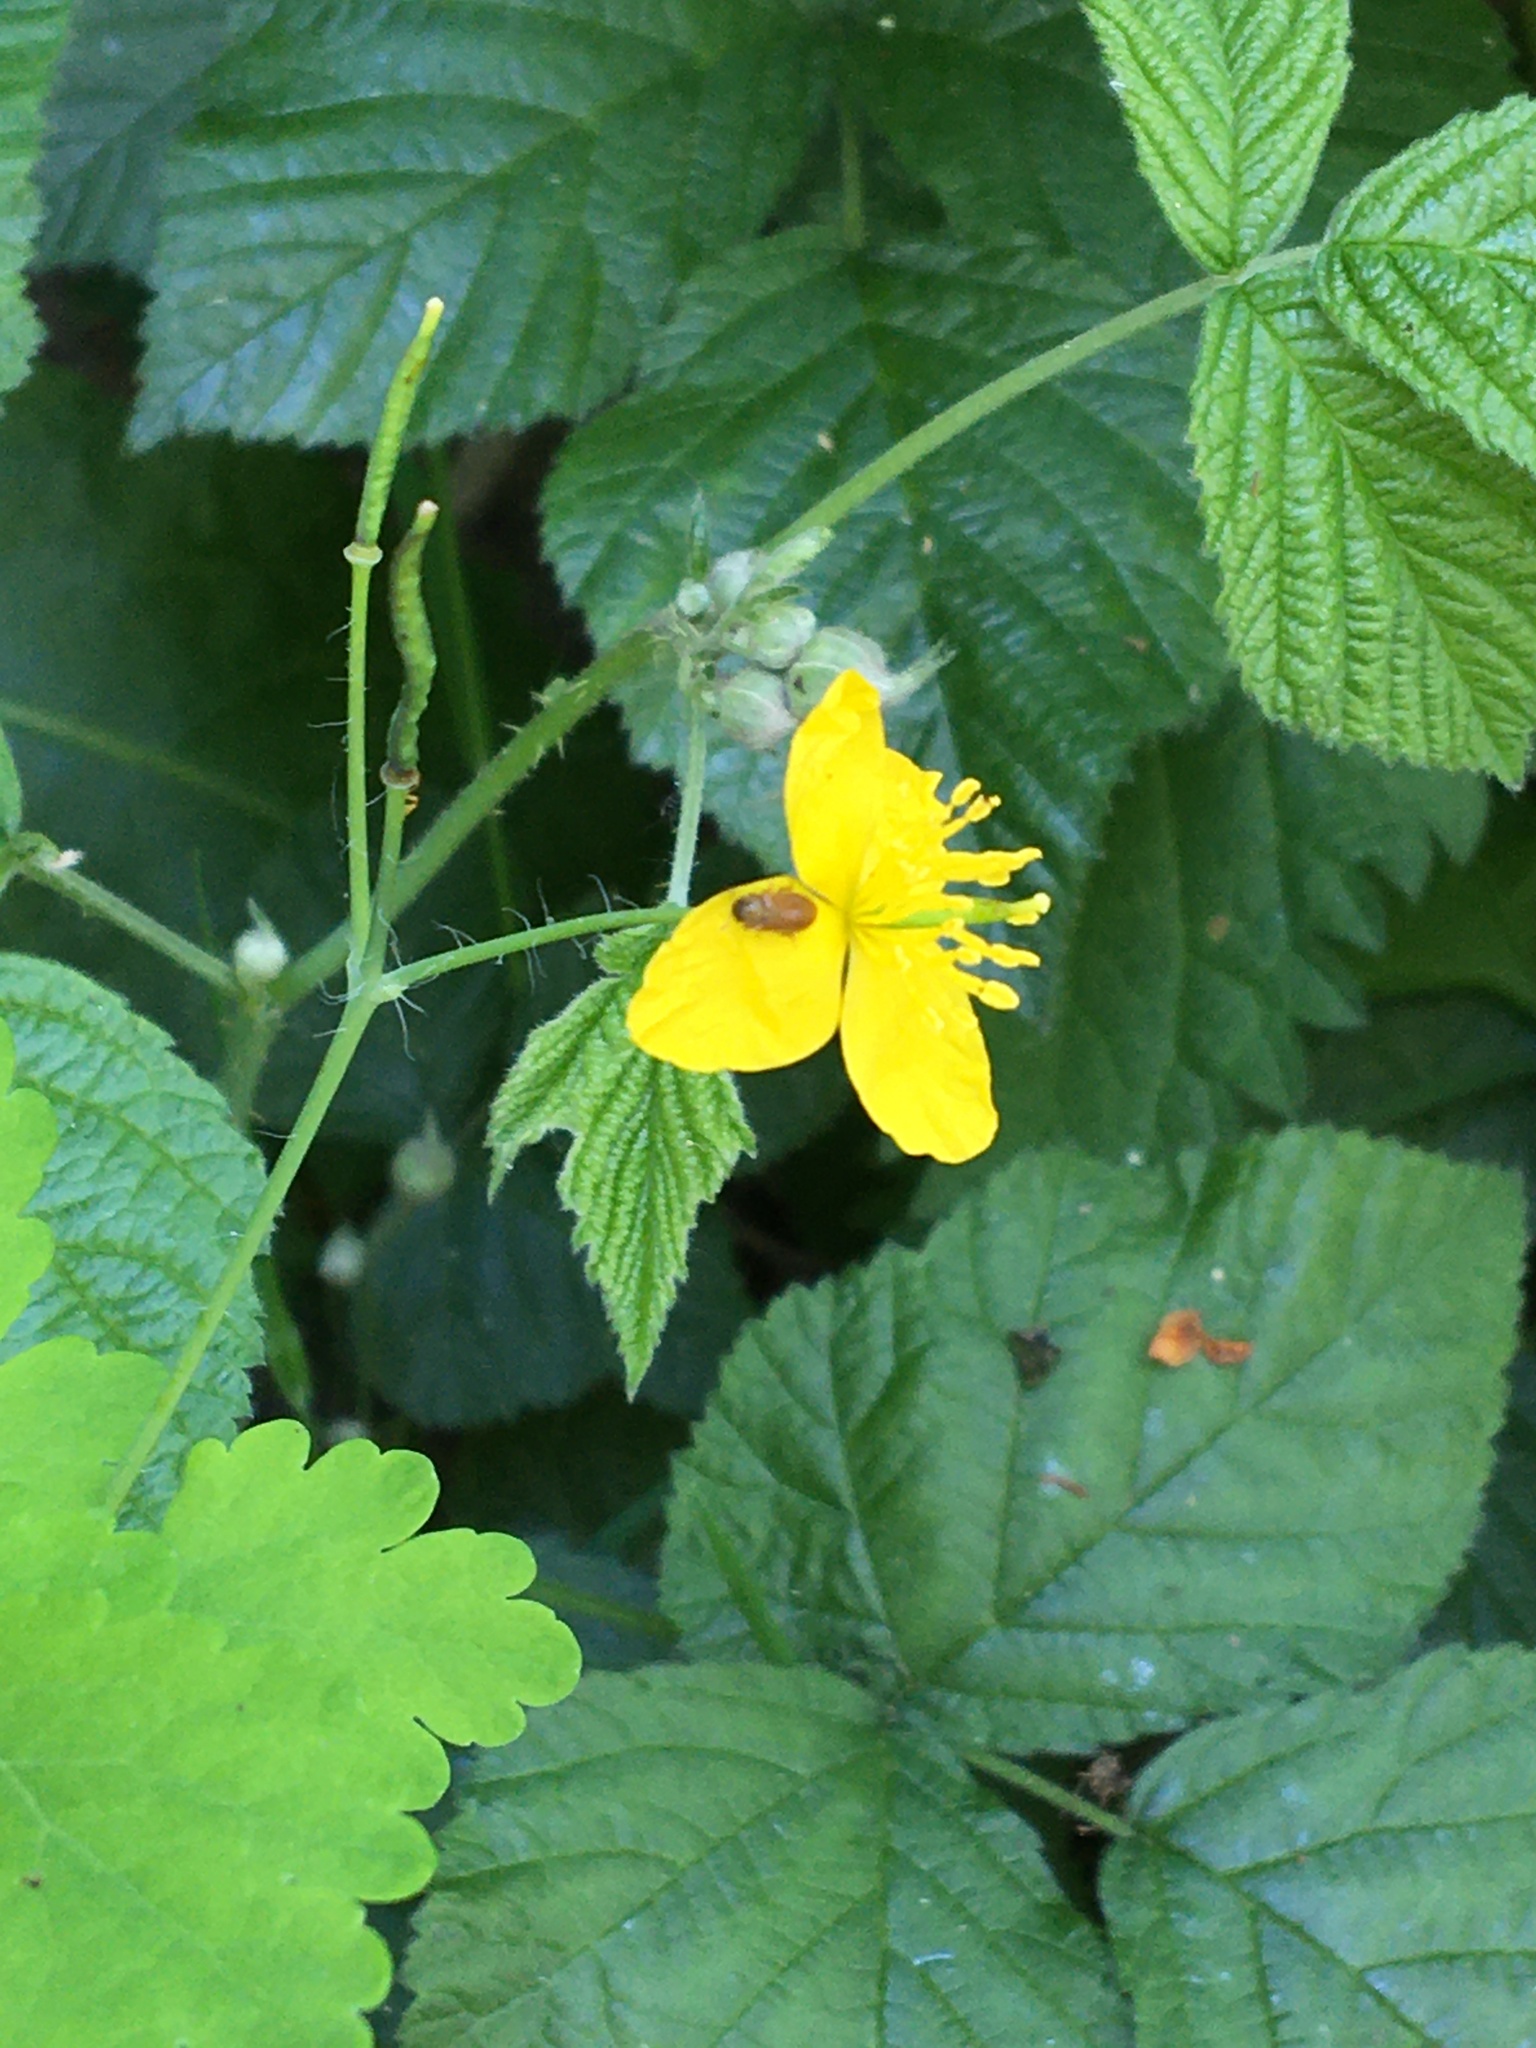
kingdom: Animalia
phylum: Arthropoda
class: Insecta
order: Coleoptera
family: Byturidae
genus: Byturus
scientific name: Byturus ochraceus
